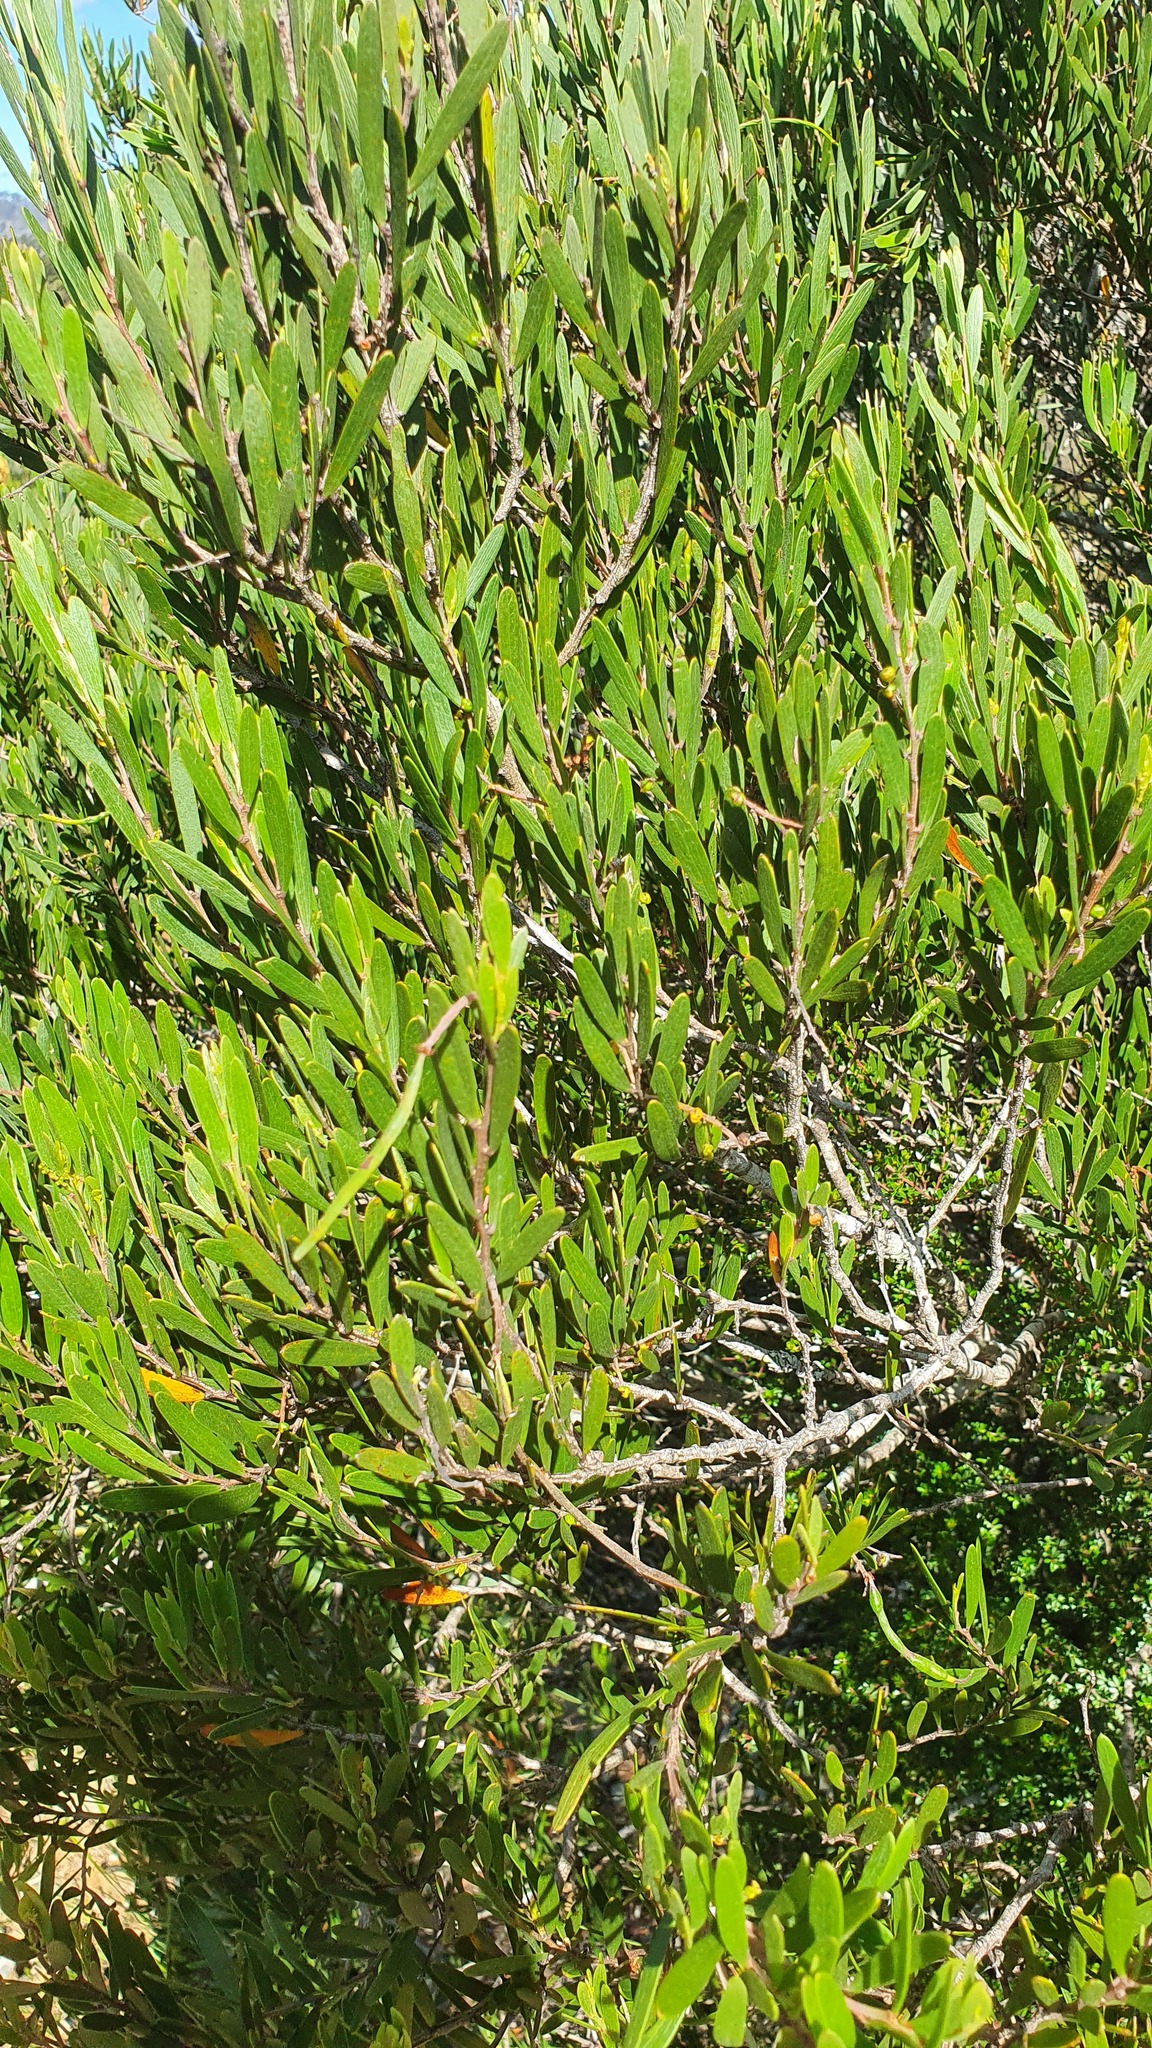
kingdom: Plantae
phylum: Tracheophyta
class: Magnoliopsida
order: Fabales
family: Fabaceae
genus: Acacia
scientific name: Acacia mucronata
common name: Variable sallow wattle
